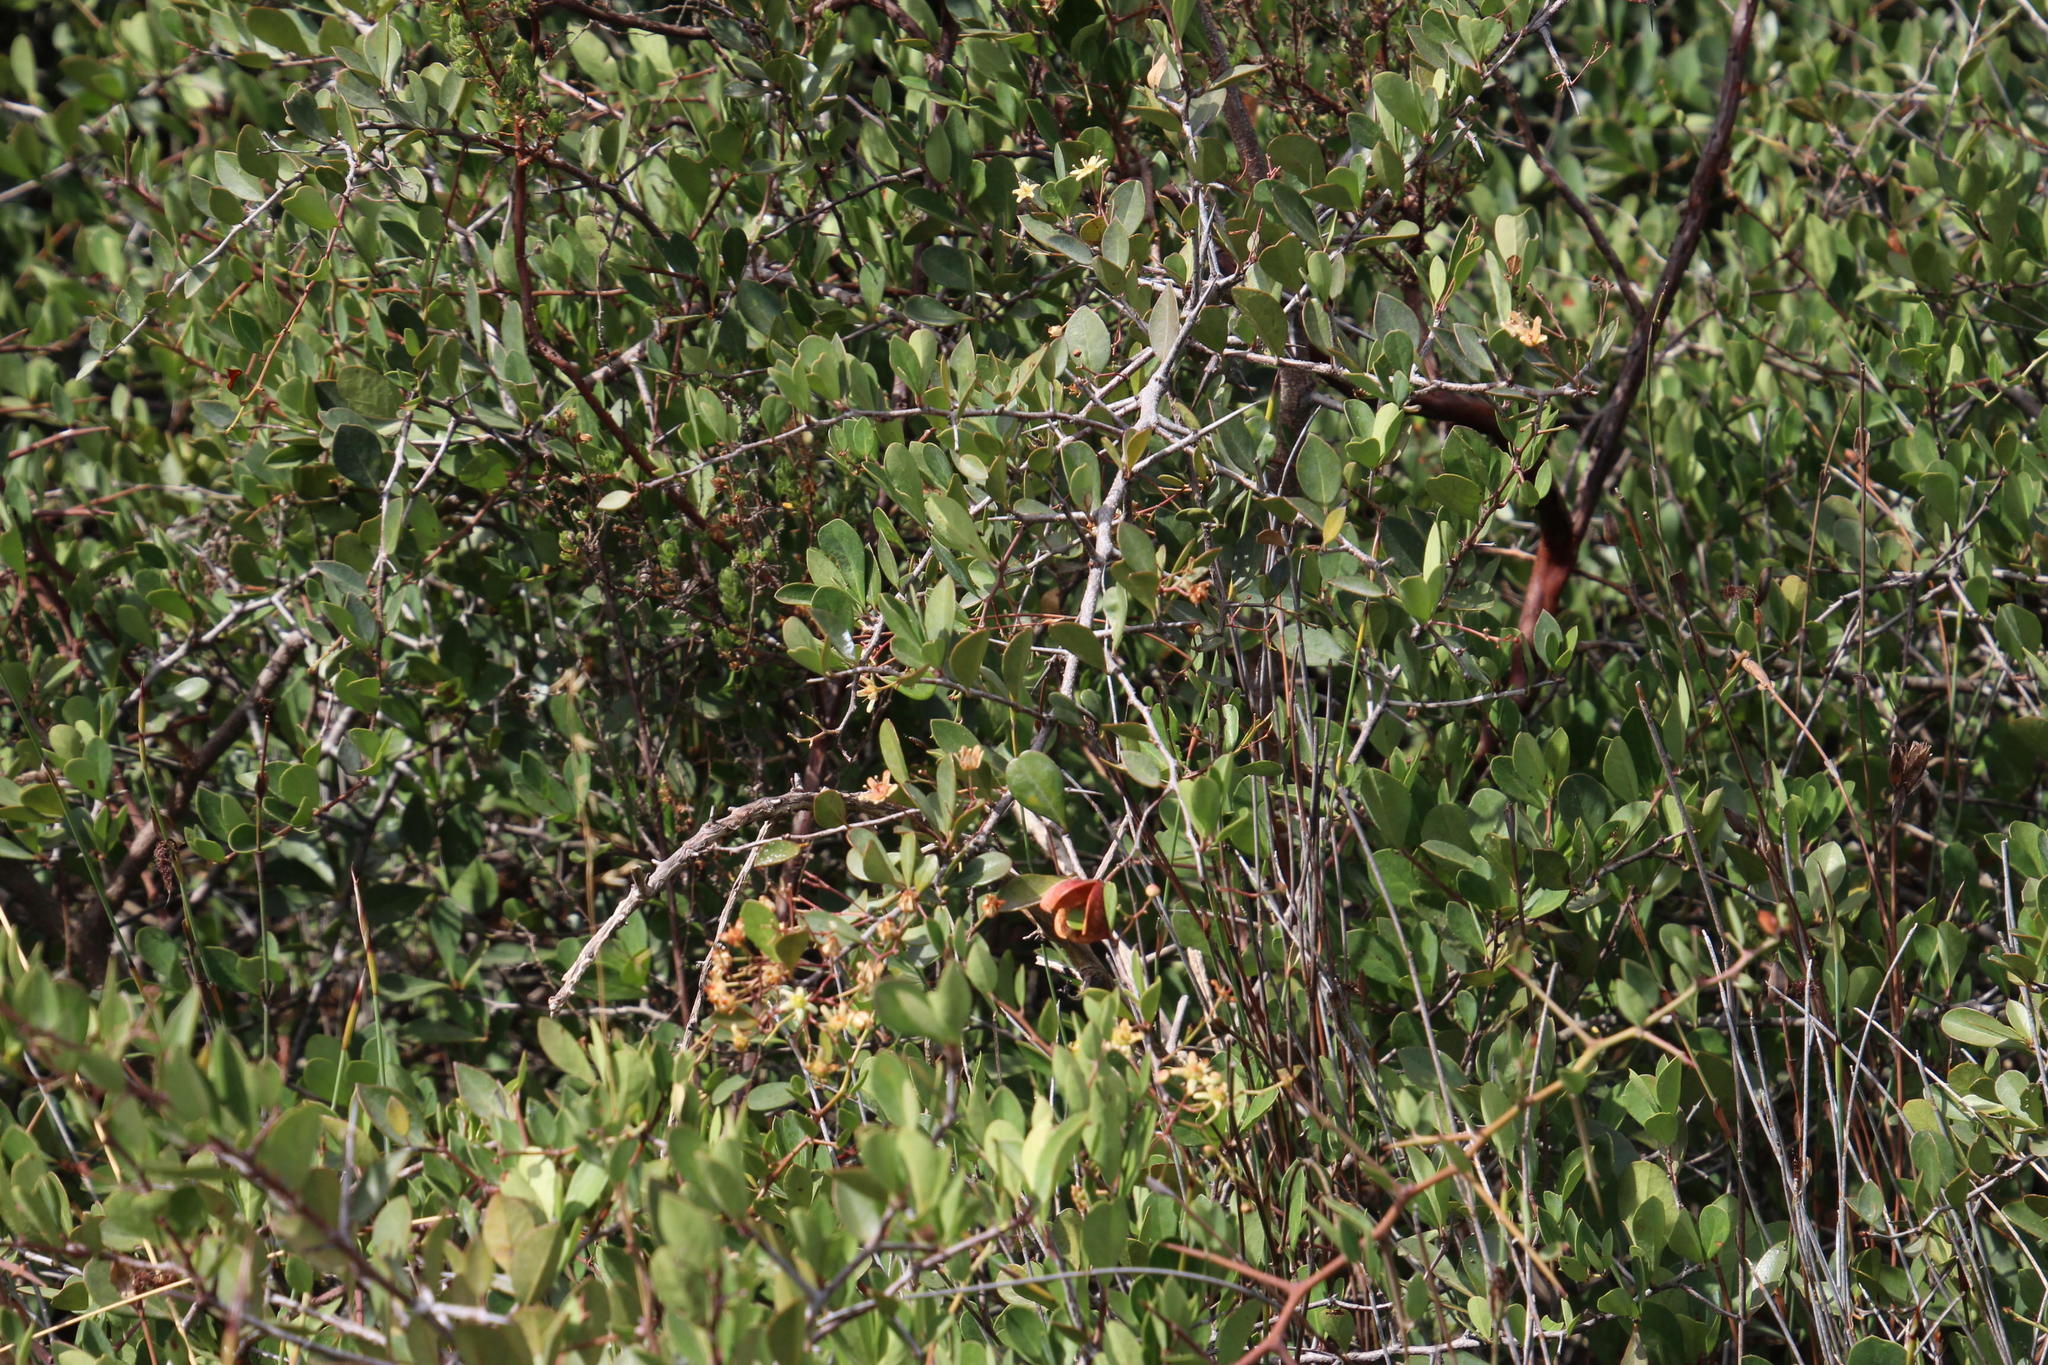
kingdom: Plantae
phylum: Tracheophyta
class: Magnoliopsida
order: Celastrales
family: Celastraceae
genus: Putterlickia
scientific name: Putterlickia pyracantha
